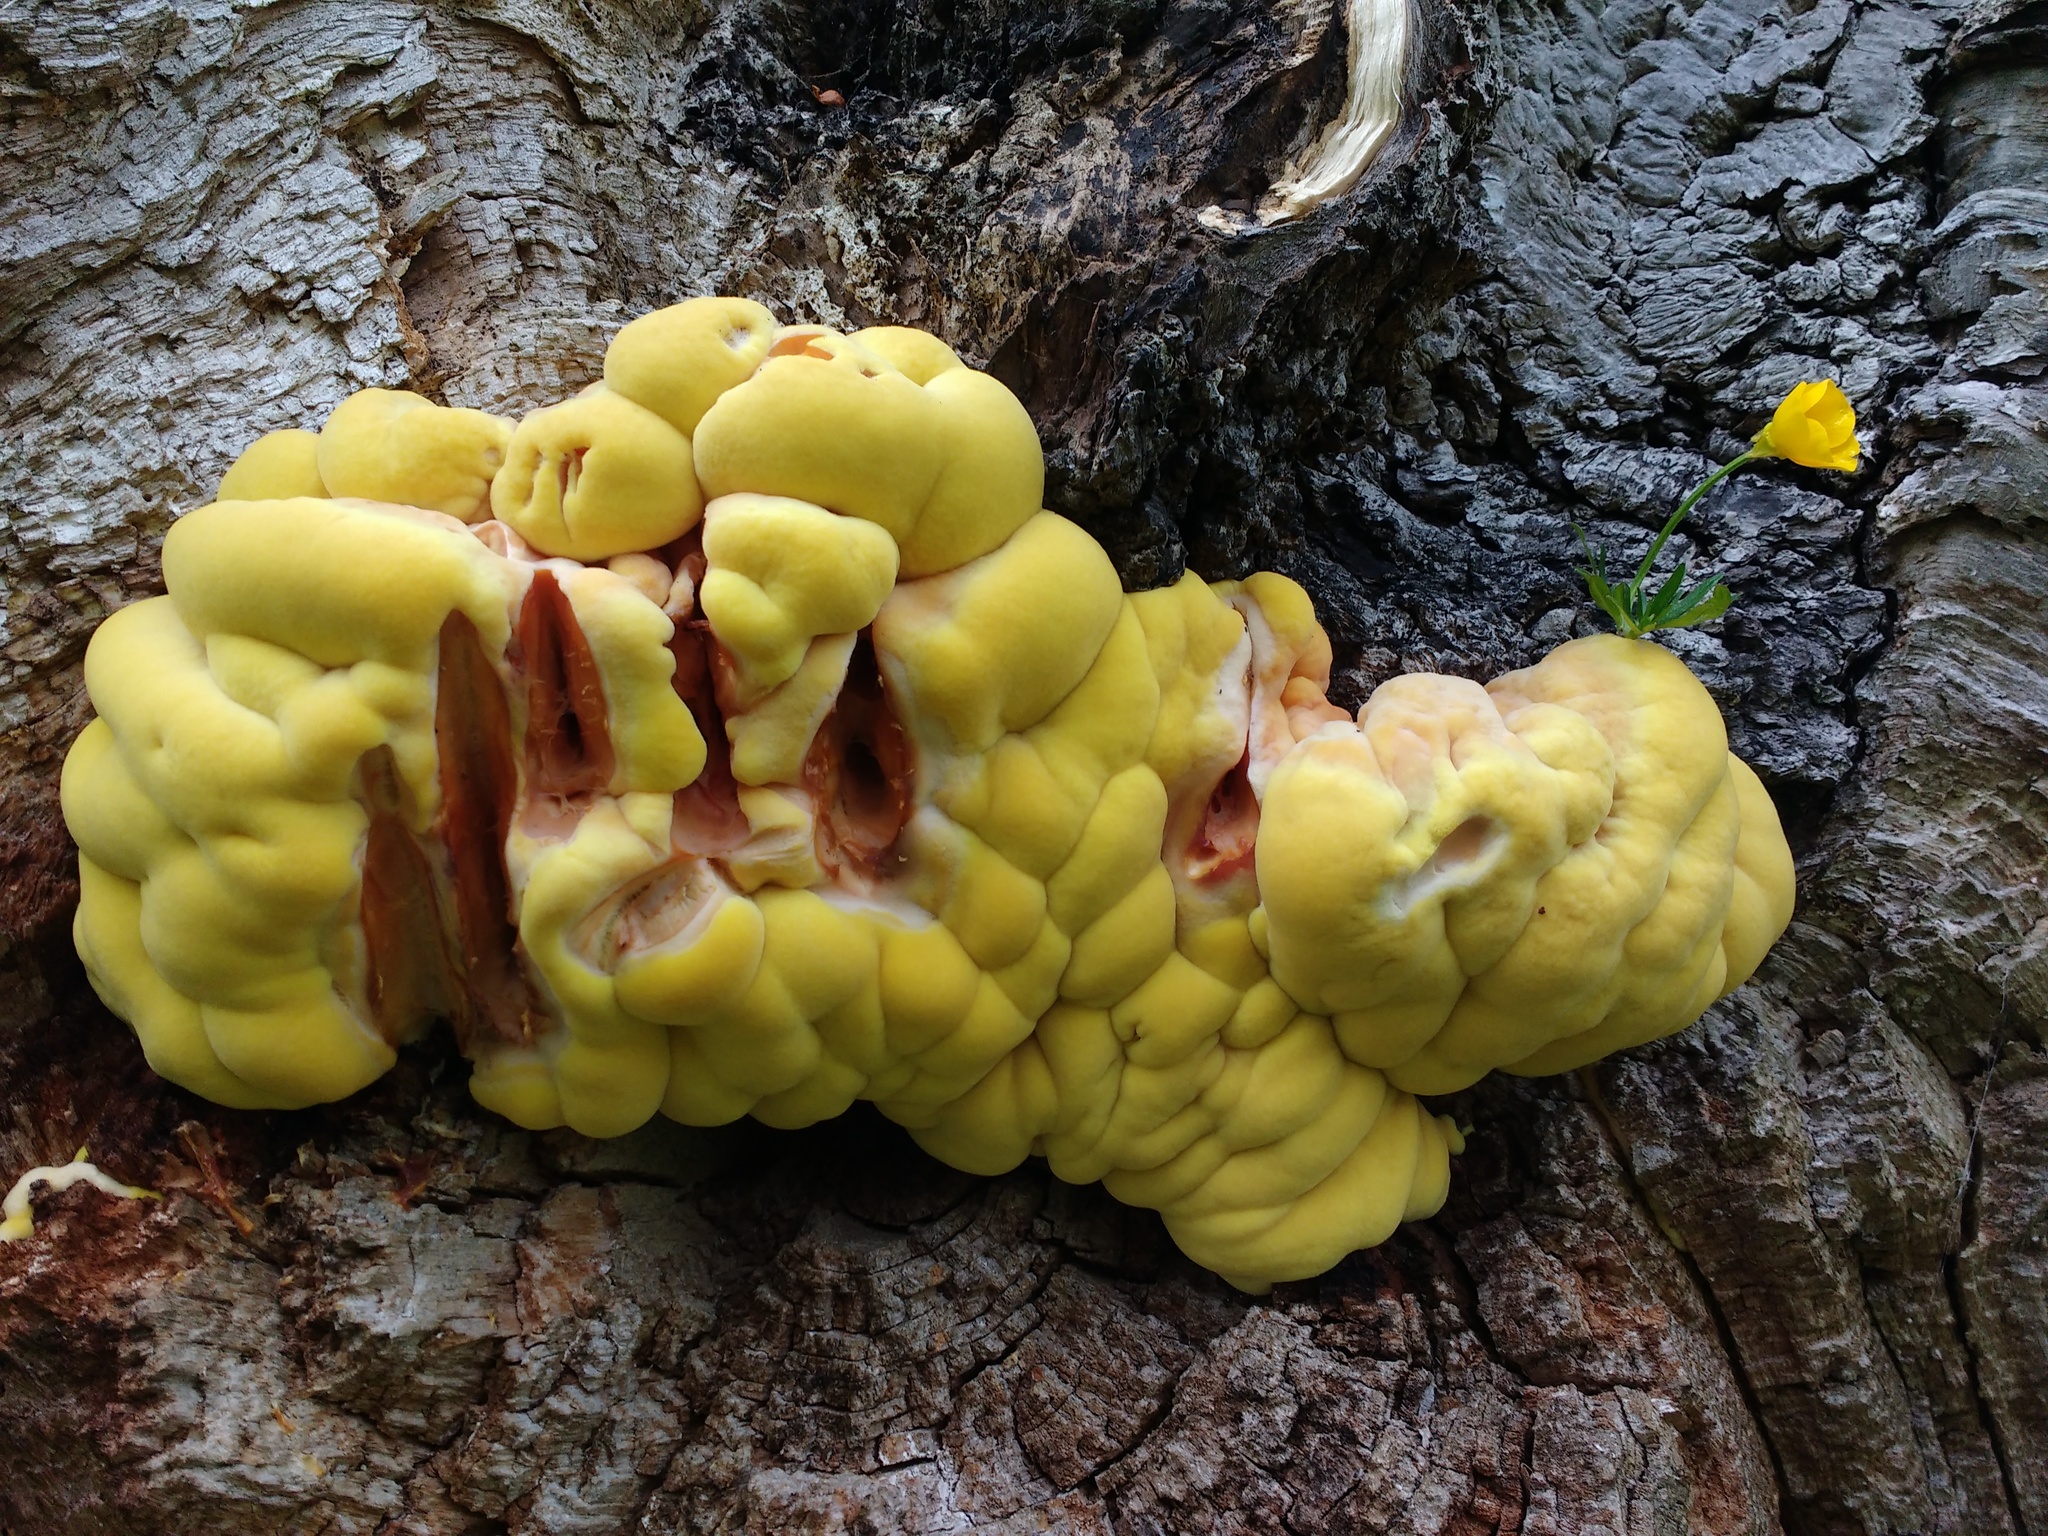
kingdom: Fungi
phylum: Basidiomycota
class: Agaricomycetes
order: Polyporales
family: Laetiporaceae
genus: Laetiporus
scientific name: Laetiporus sulphureus
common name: Chicken of the woods
